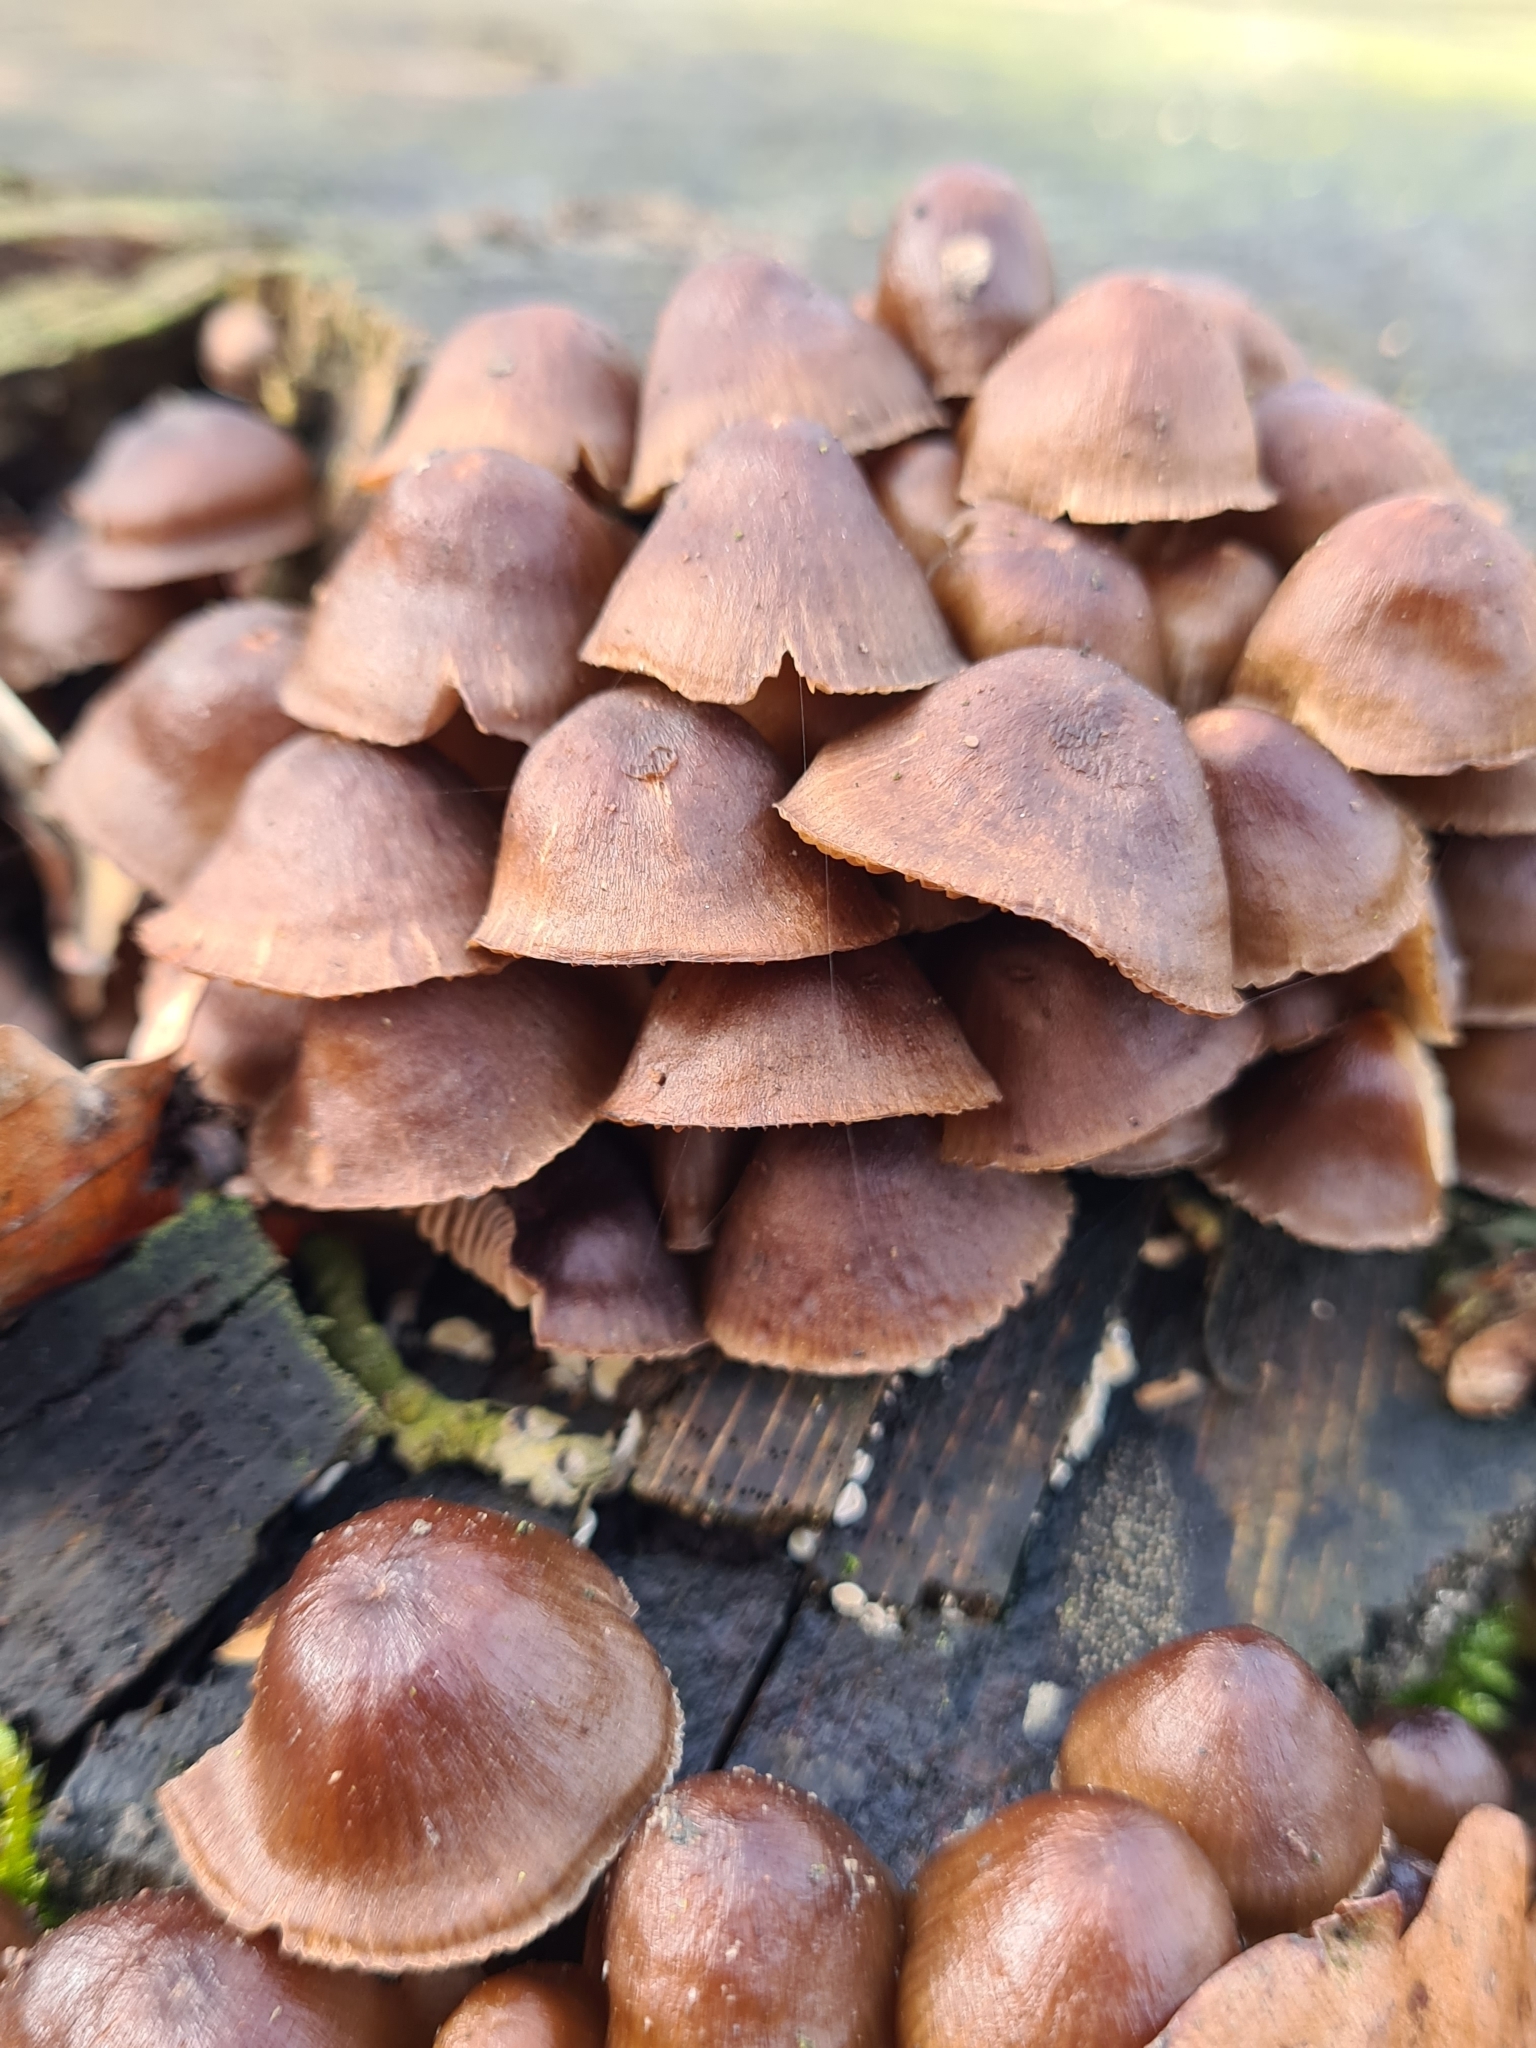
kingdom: Fungi
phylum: Basidiomycota
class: Agaricomycetes
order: Agaricales
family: Mycenaceae
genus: Mycena
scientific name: Mycena tintinnabulum
